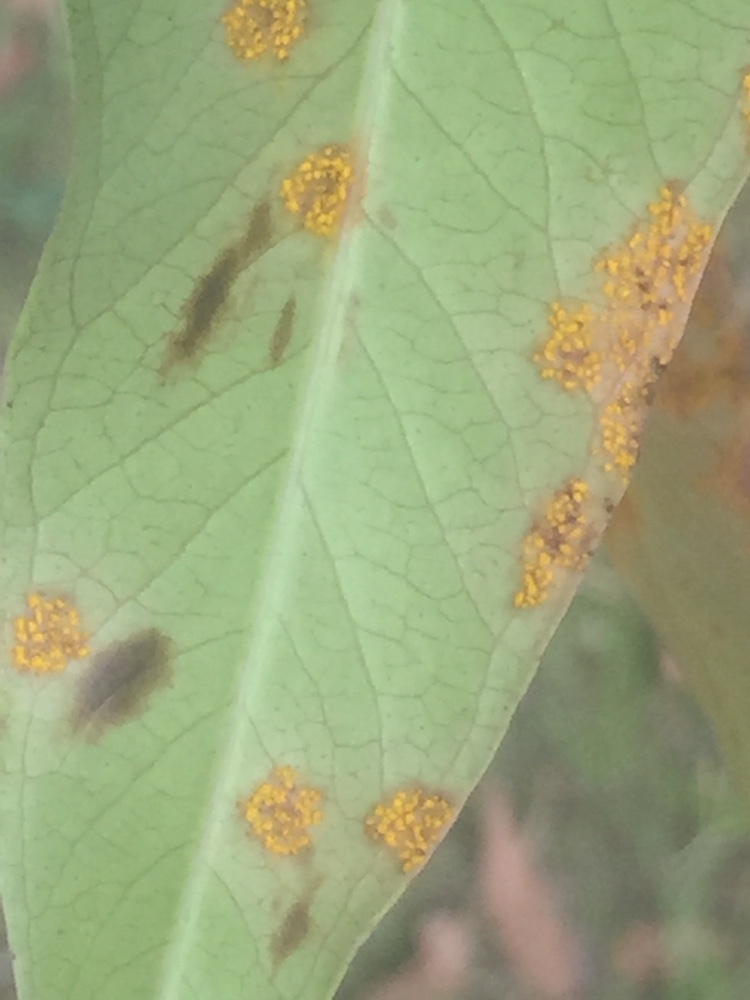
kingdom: Fungi
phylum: Basidiomycota
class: Pucciniomycetes
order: Pucciniales
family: Sphaerophragmiaceae
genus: Austropuccinia
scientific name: Austropuccinia psidii
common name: Myrtle rust
